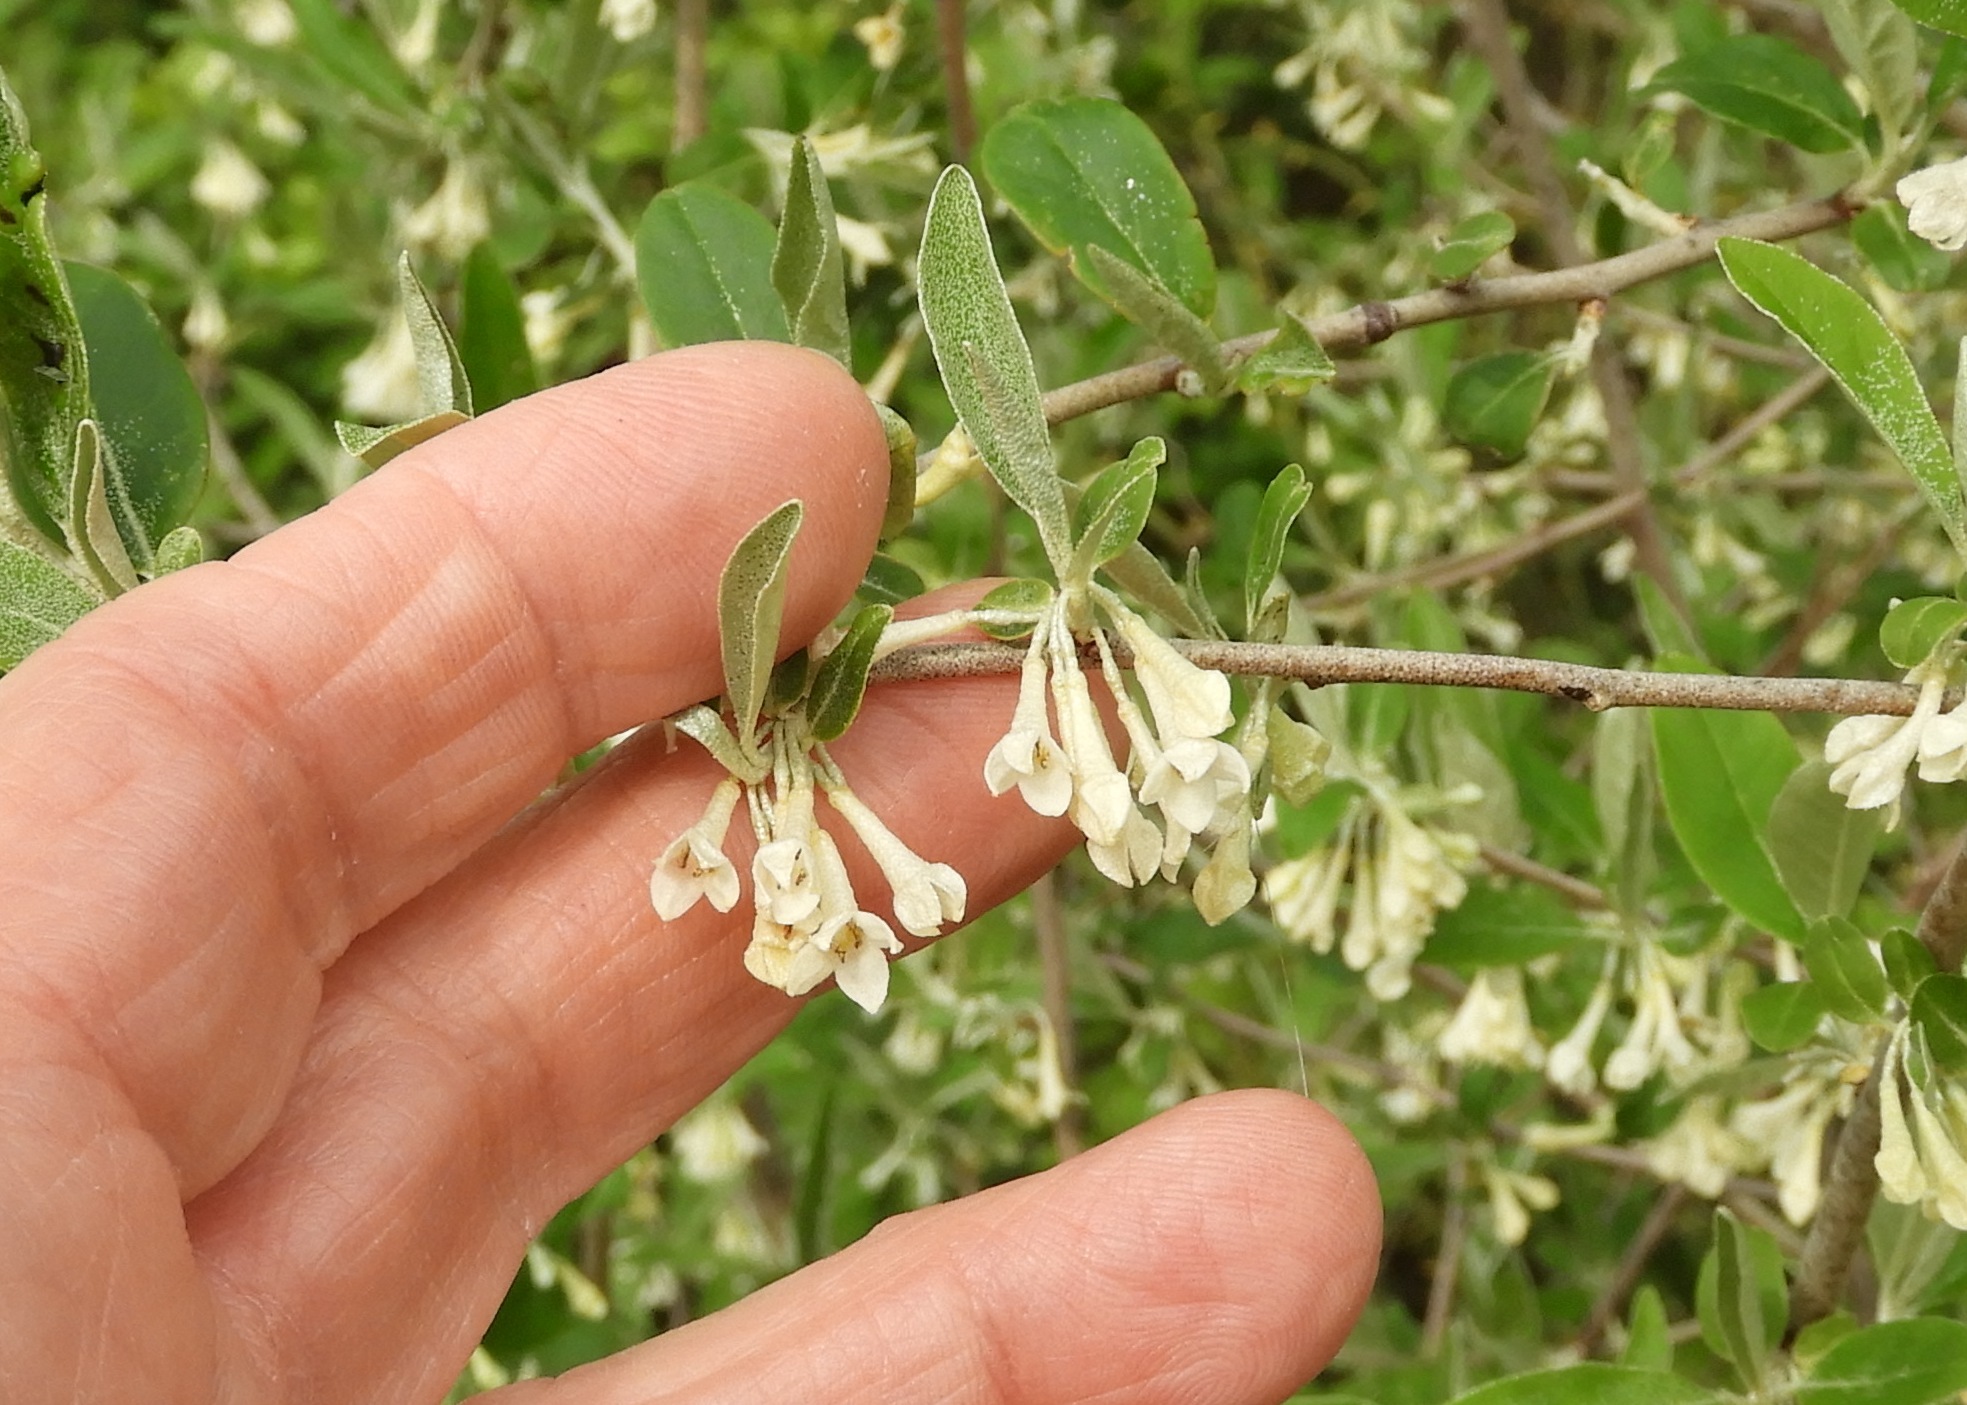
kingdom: Plantae
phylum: Tracheophyta
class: Magnoliopsida
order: Rosales
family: Elaeagnaceae
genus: Elaeagnus
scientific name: Elaeagnus umbellata
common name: Autumn olive
